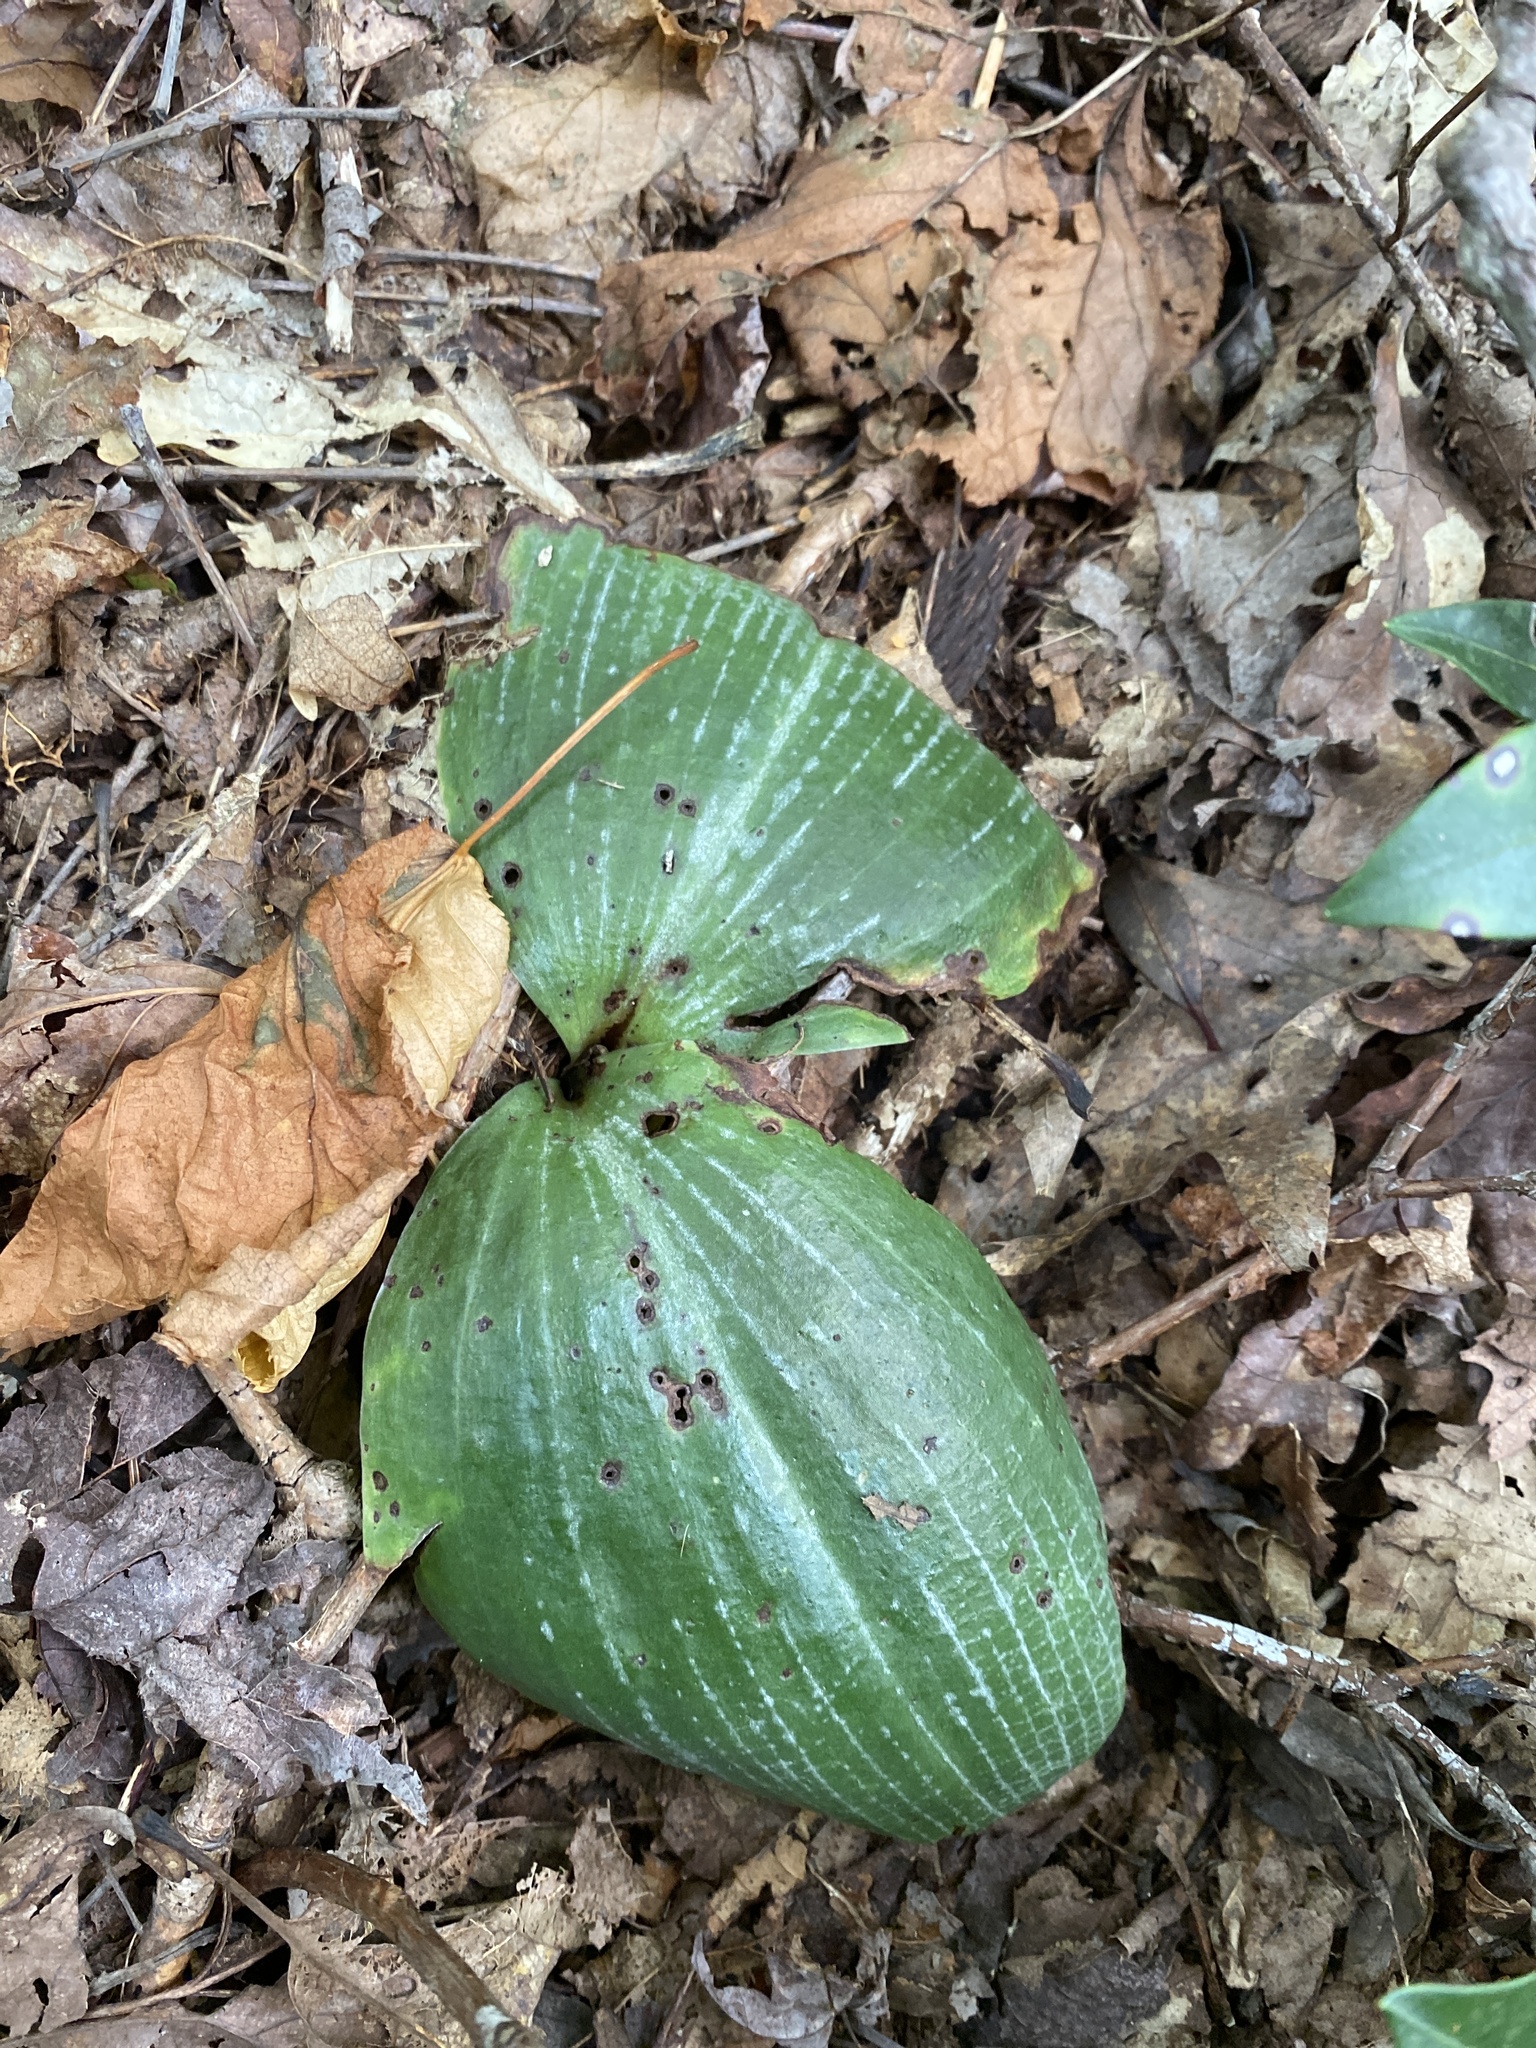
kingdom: Plantae
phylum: Tracheophyta
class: Liliopsida
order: Asparagales
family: Orchidaceae
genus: Platanthera
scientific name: Platanthera orbiculata
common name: Large round-leaved orchid
